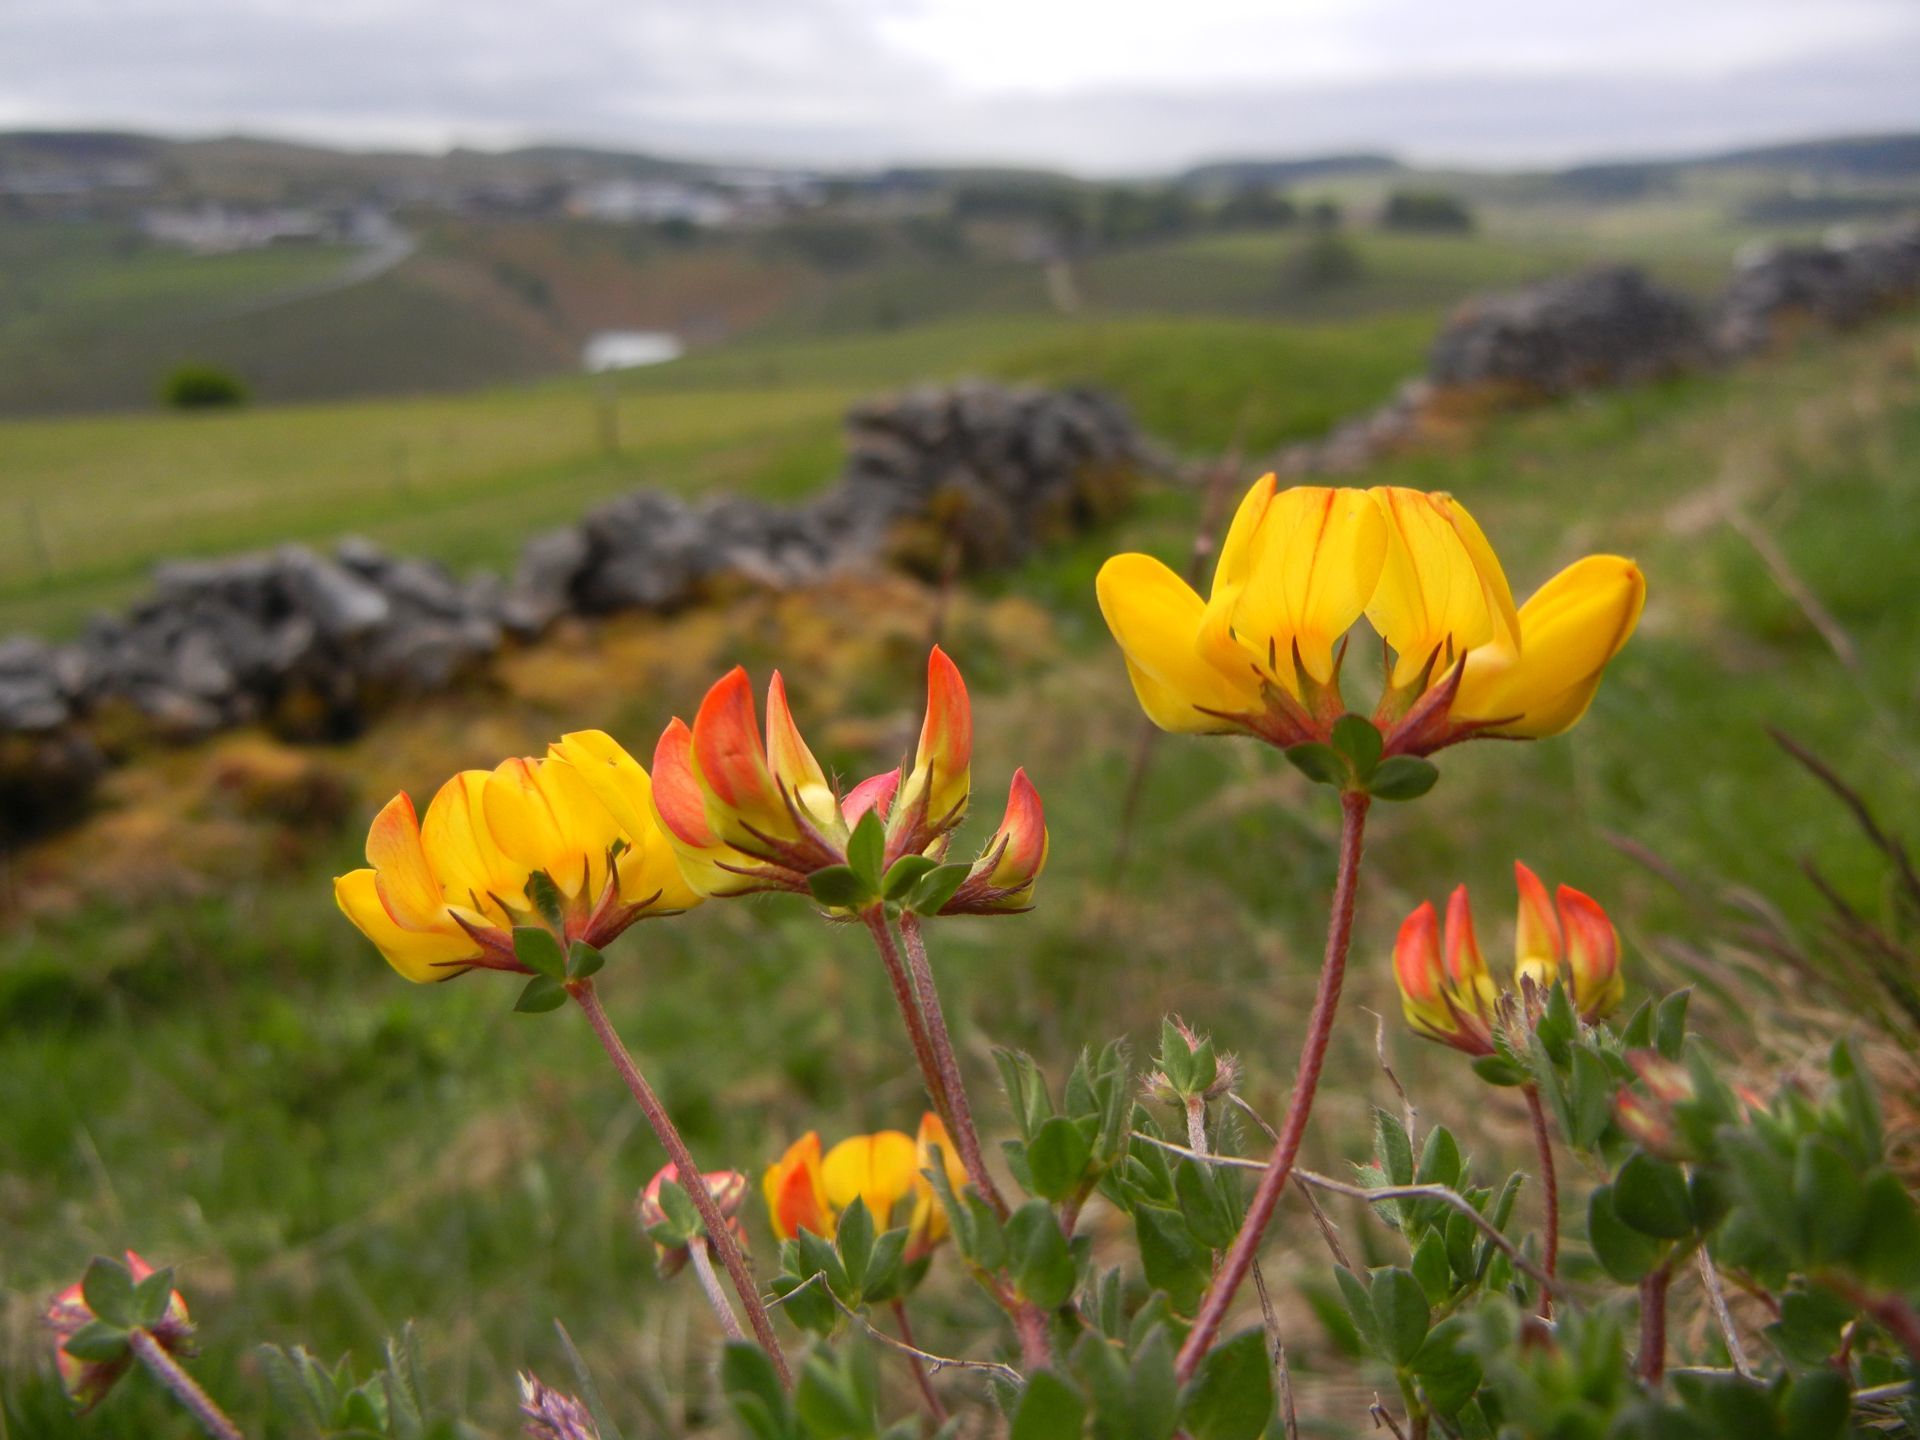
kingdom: Plantae
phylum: Tracheophyta
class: Magnoliopsida
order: Fabales
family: Fabaceae
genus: Lotus
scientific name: Lotus corniculatus
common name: Common bird's-foot-trefoil
